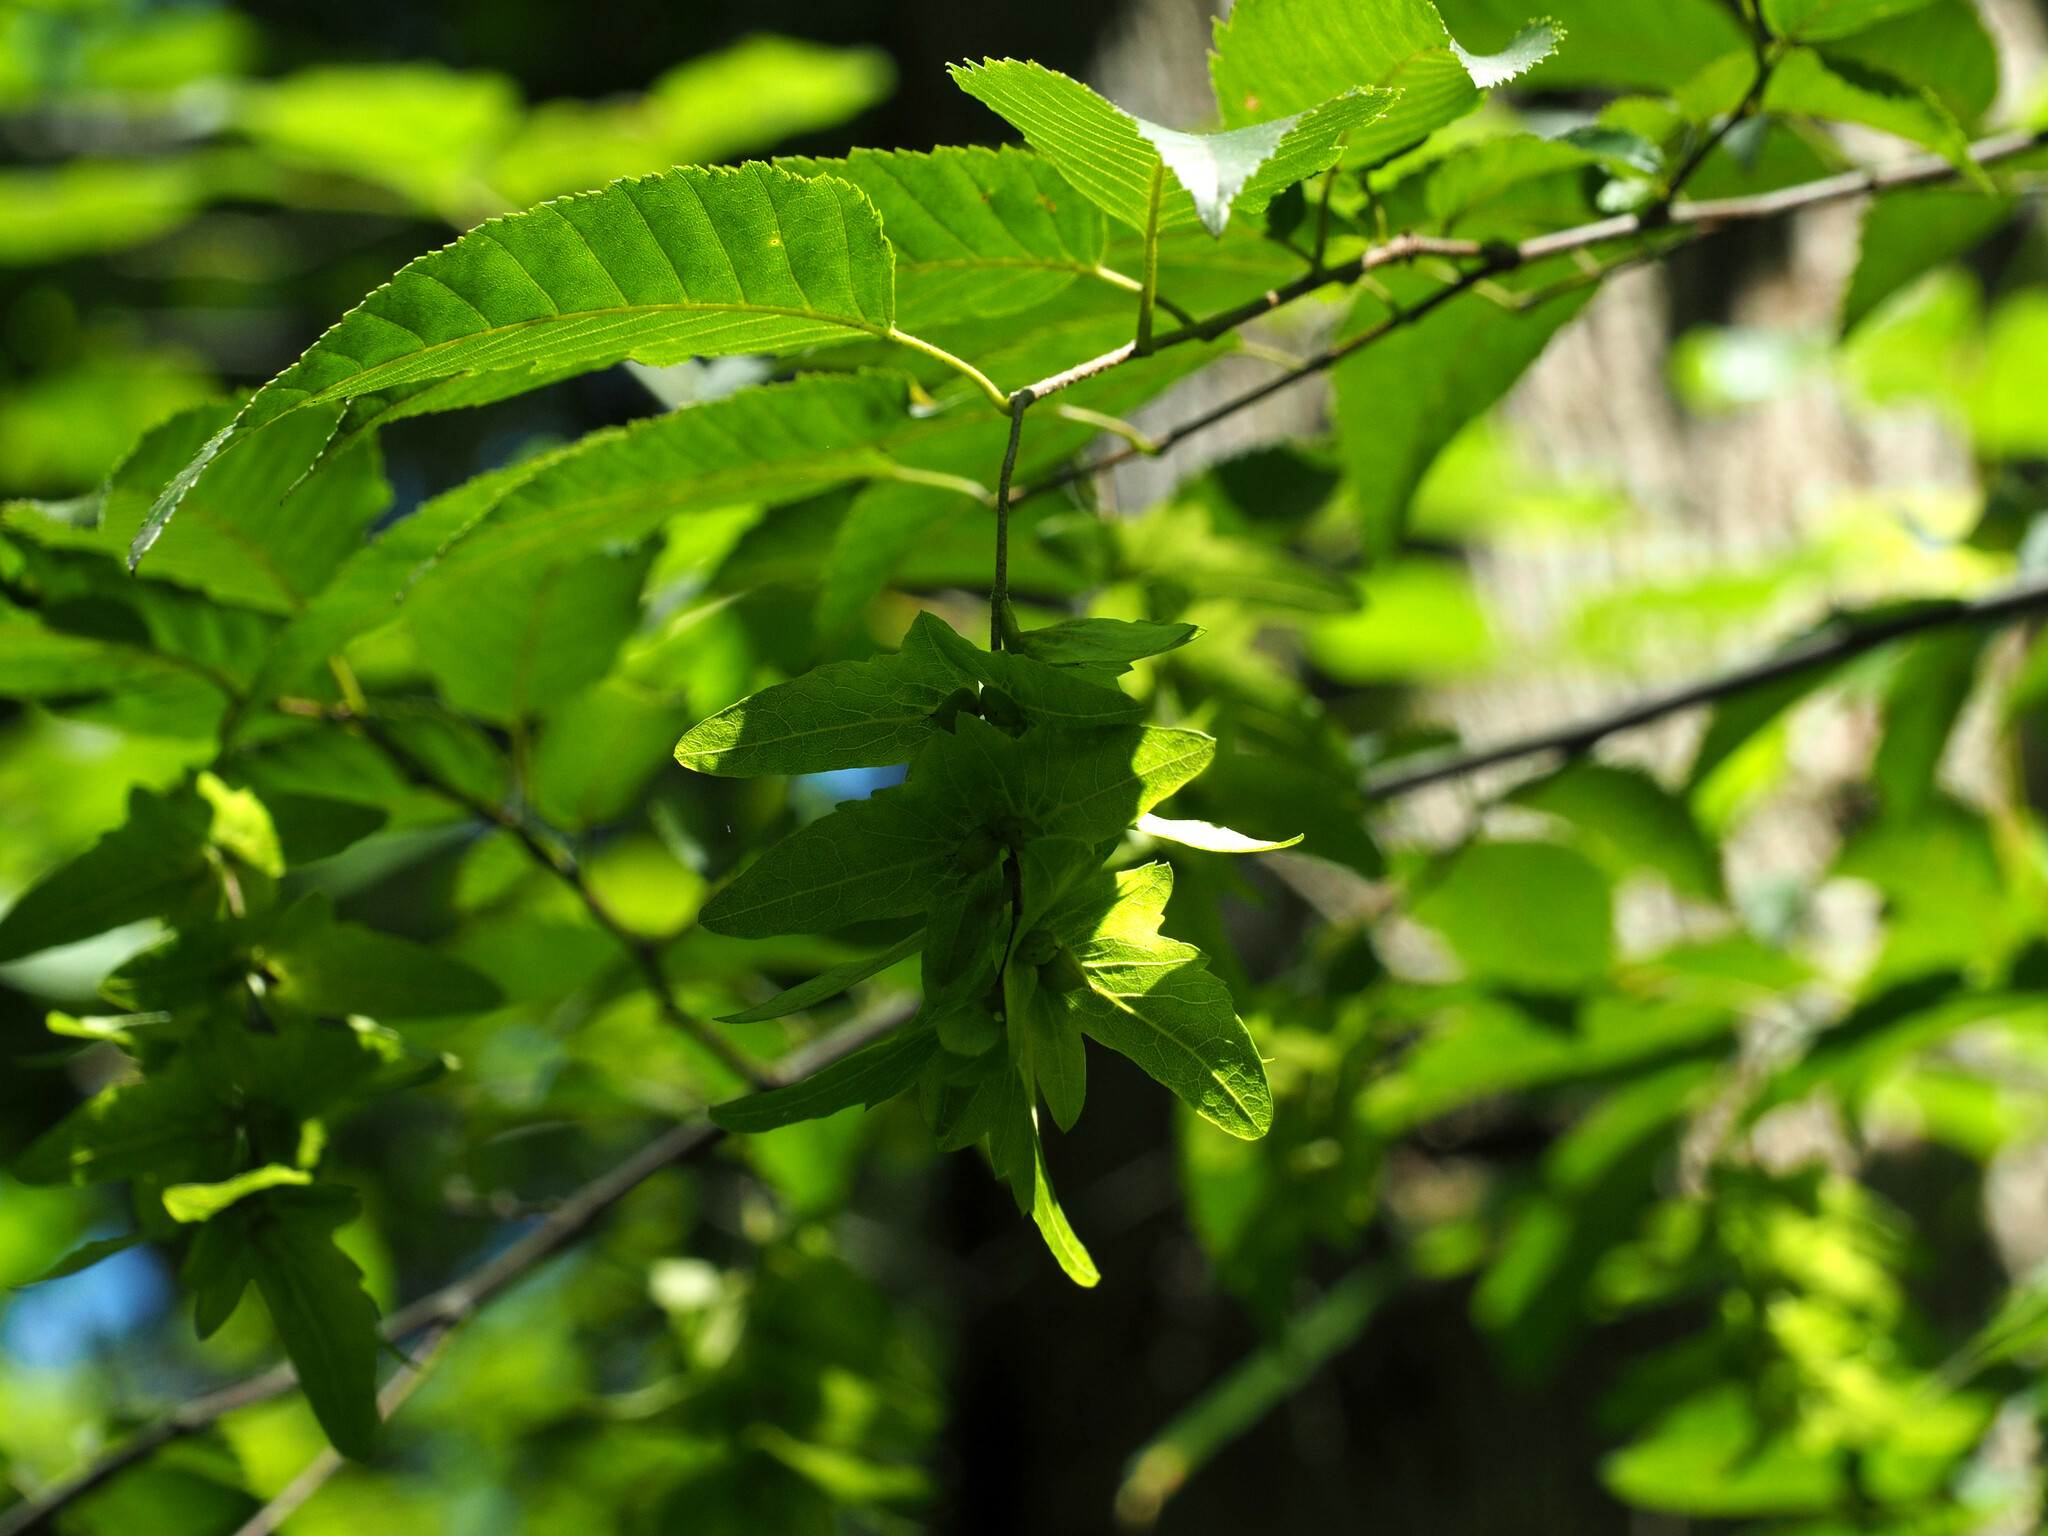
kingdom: Plantae
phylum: Tracheophyta
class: Magnoliopsida
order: Fagales
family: Betulaceae
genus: Carpinus
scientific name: Carpinus caroliniana
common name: American hornbeam
